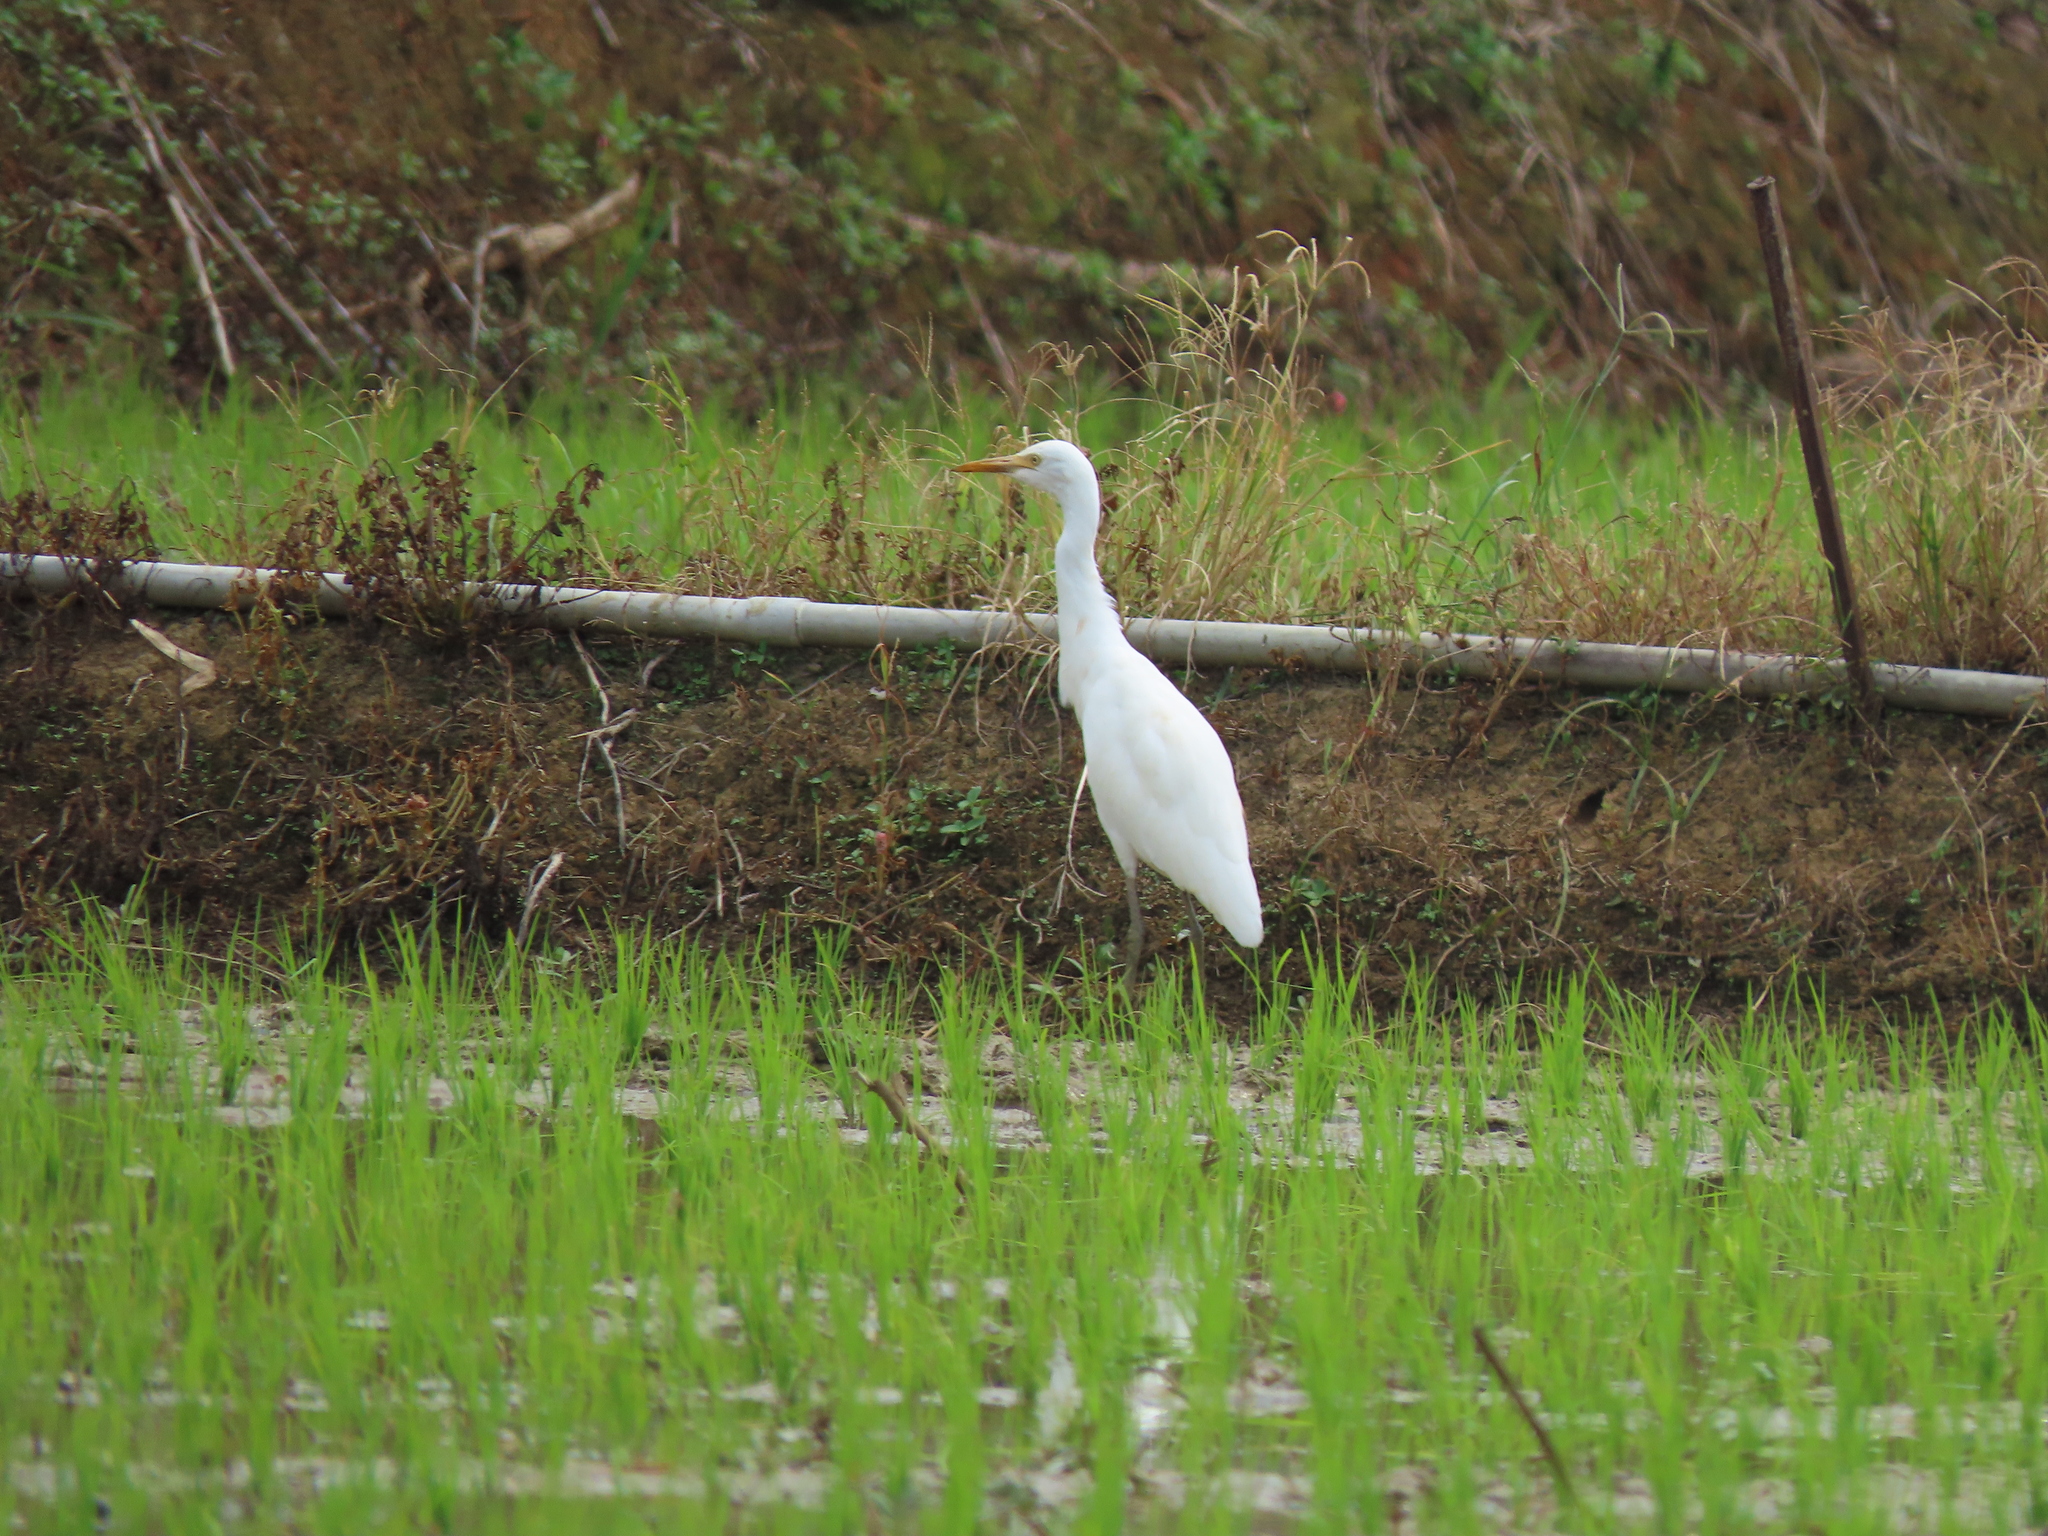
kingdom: Animalia
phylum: Chordata
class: Aves
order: Pelecaniformes
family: Ardeidae
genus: Bubulcus
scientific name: Bubulcus coromandus
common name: Eastern cattle egret
